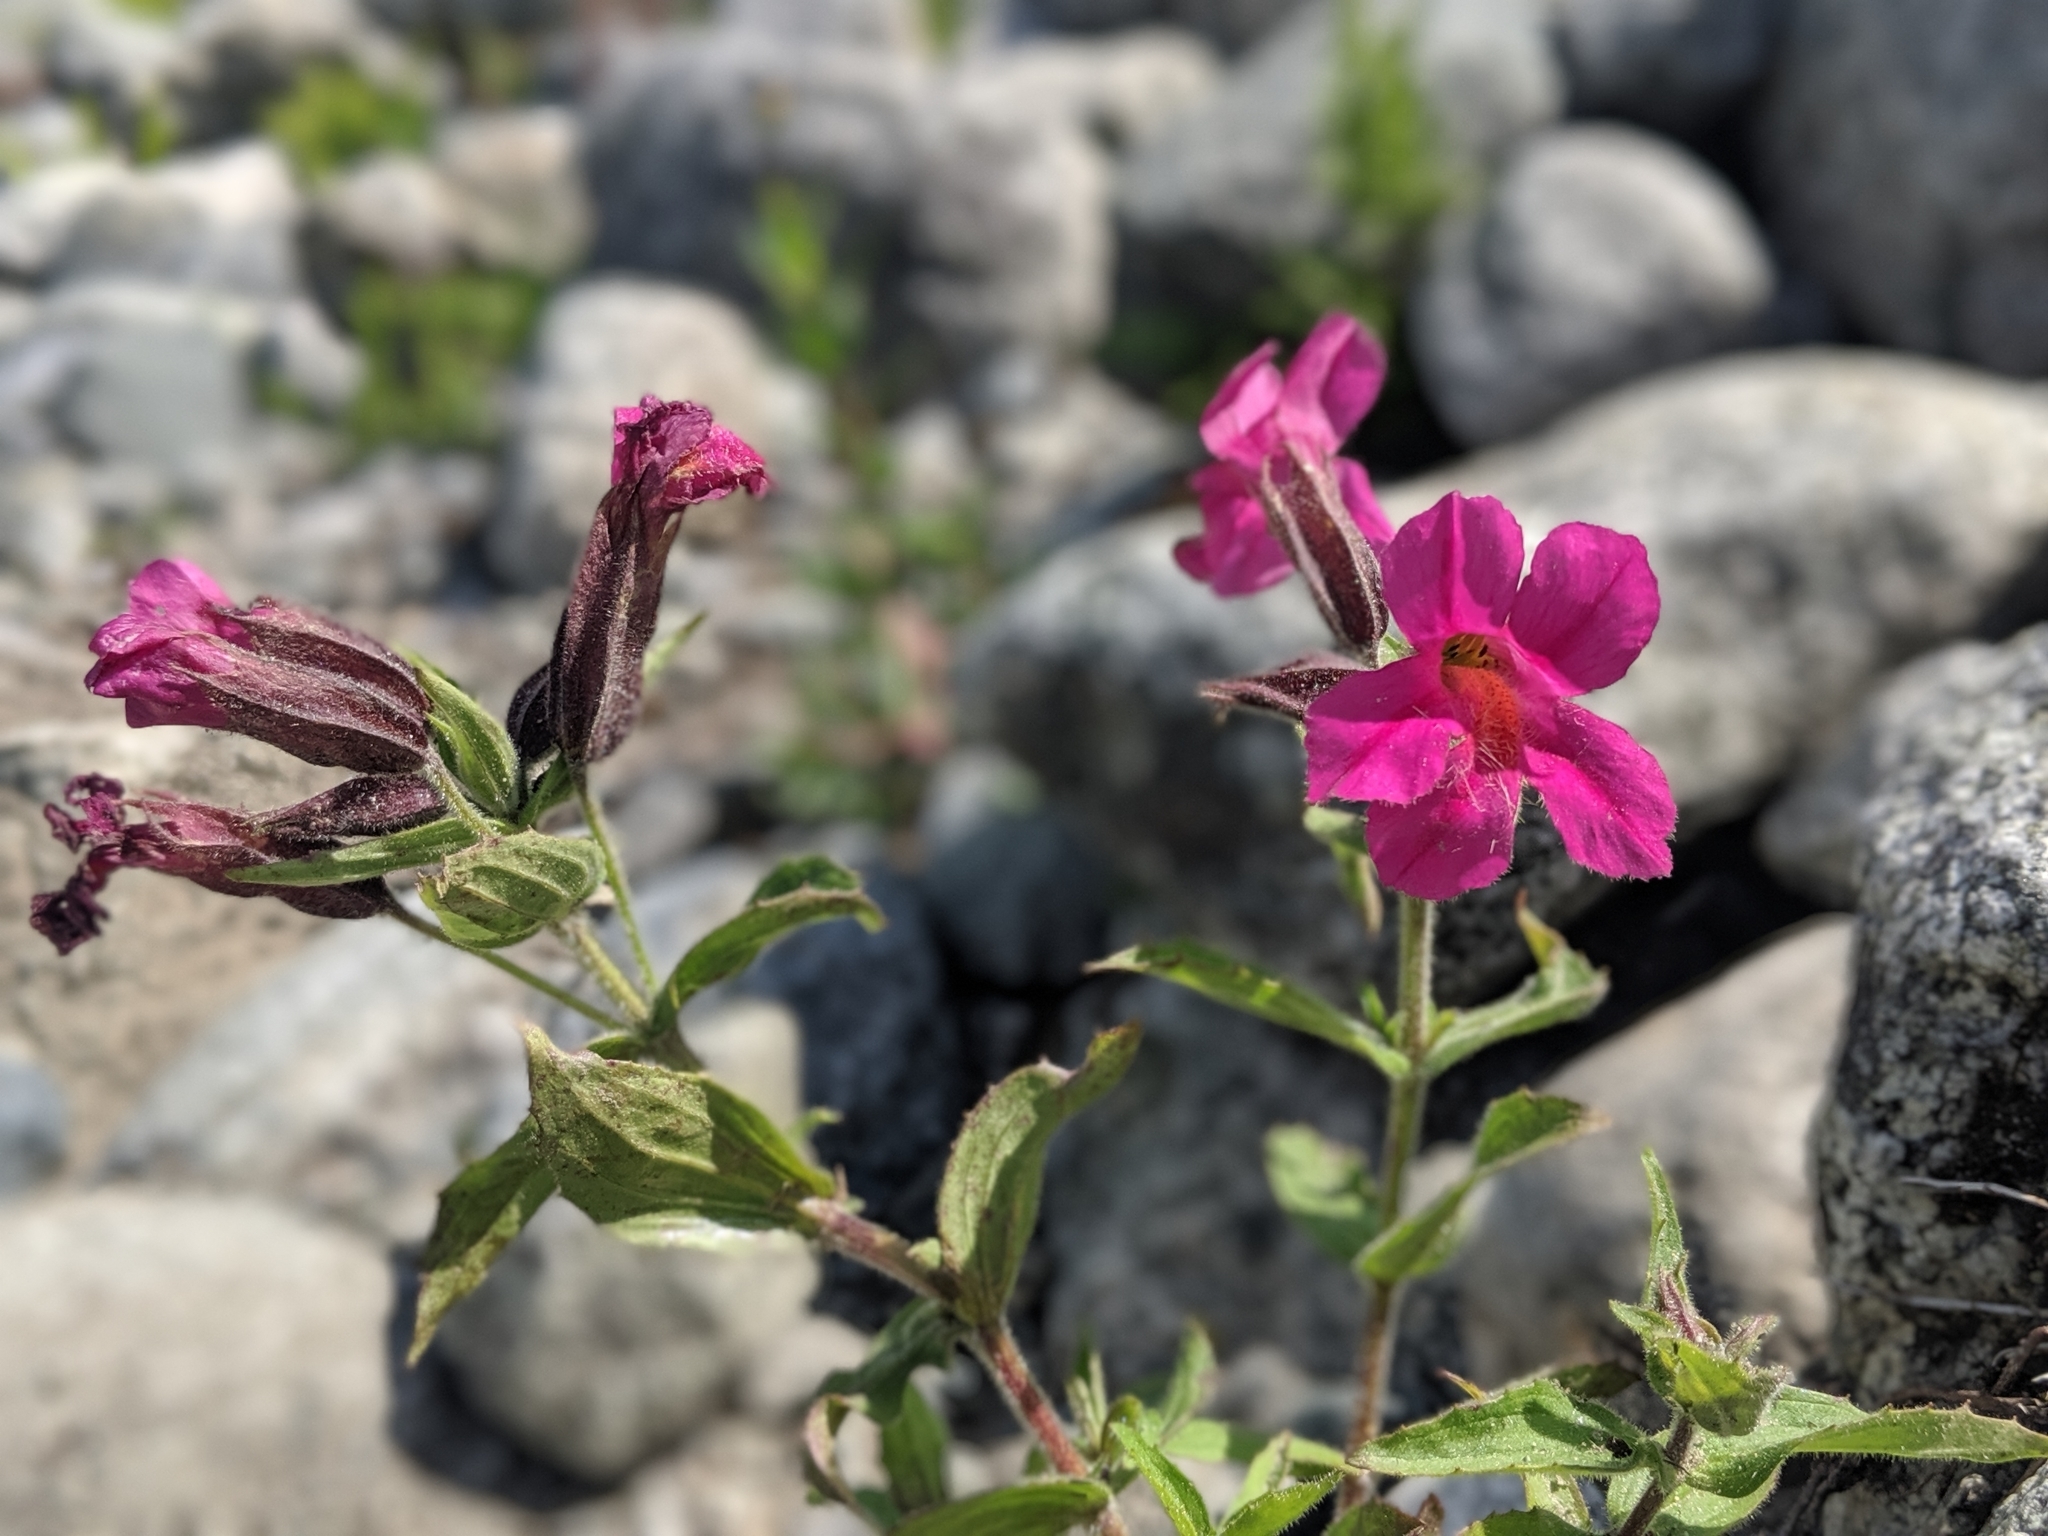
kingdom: Plantae
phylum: Tracheophyta
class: Magnoliopsida
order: Lamiales
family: Phrymaceae
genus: Erythranthe
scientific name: Erythranthe lewisii
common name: Lewis's monkey-flower
